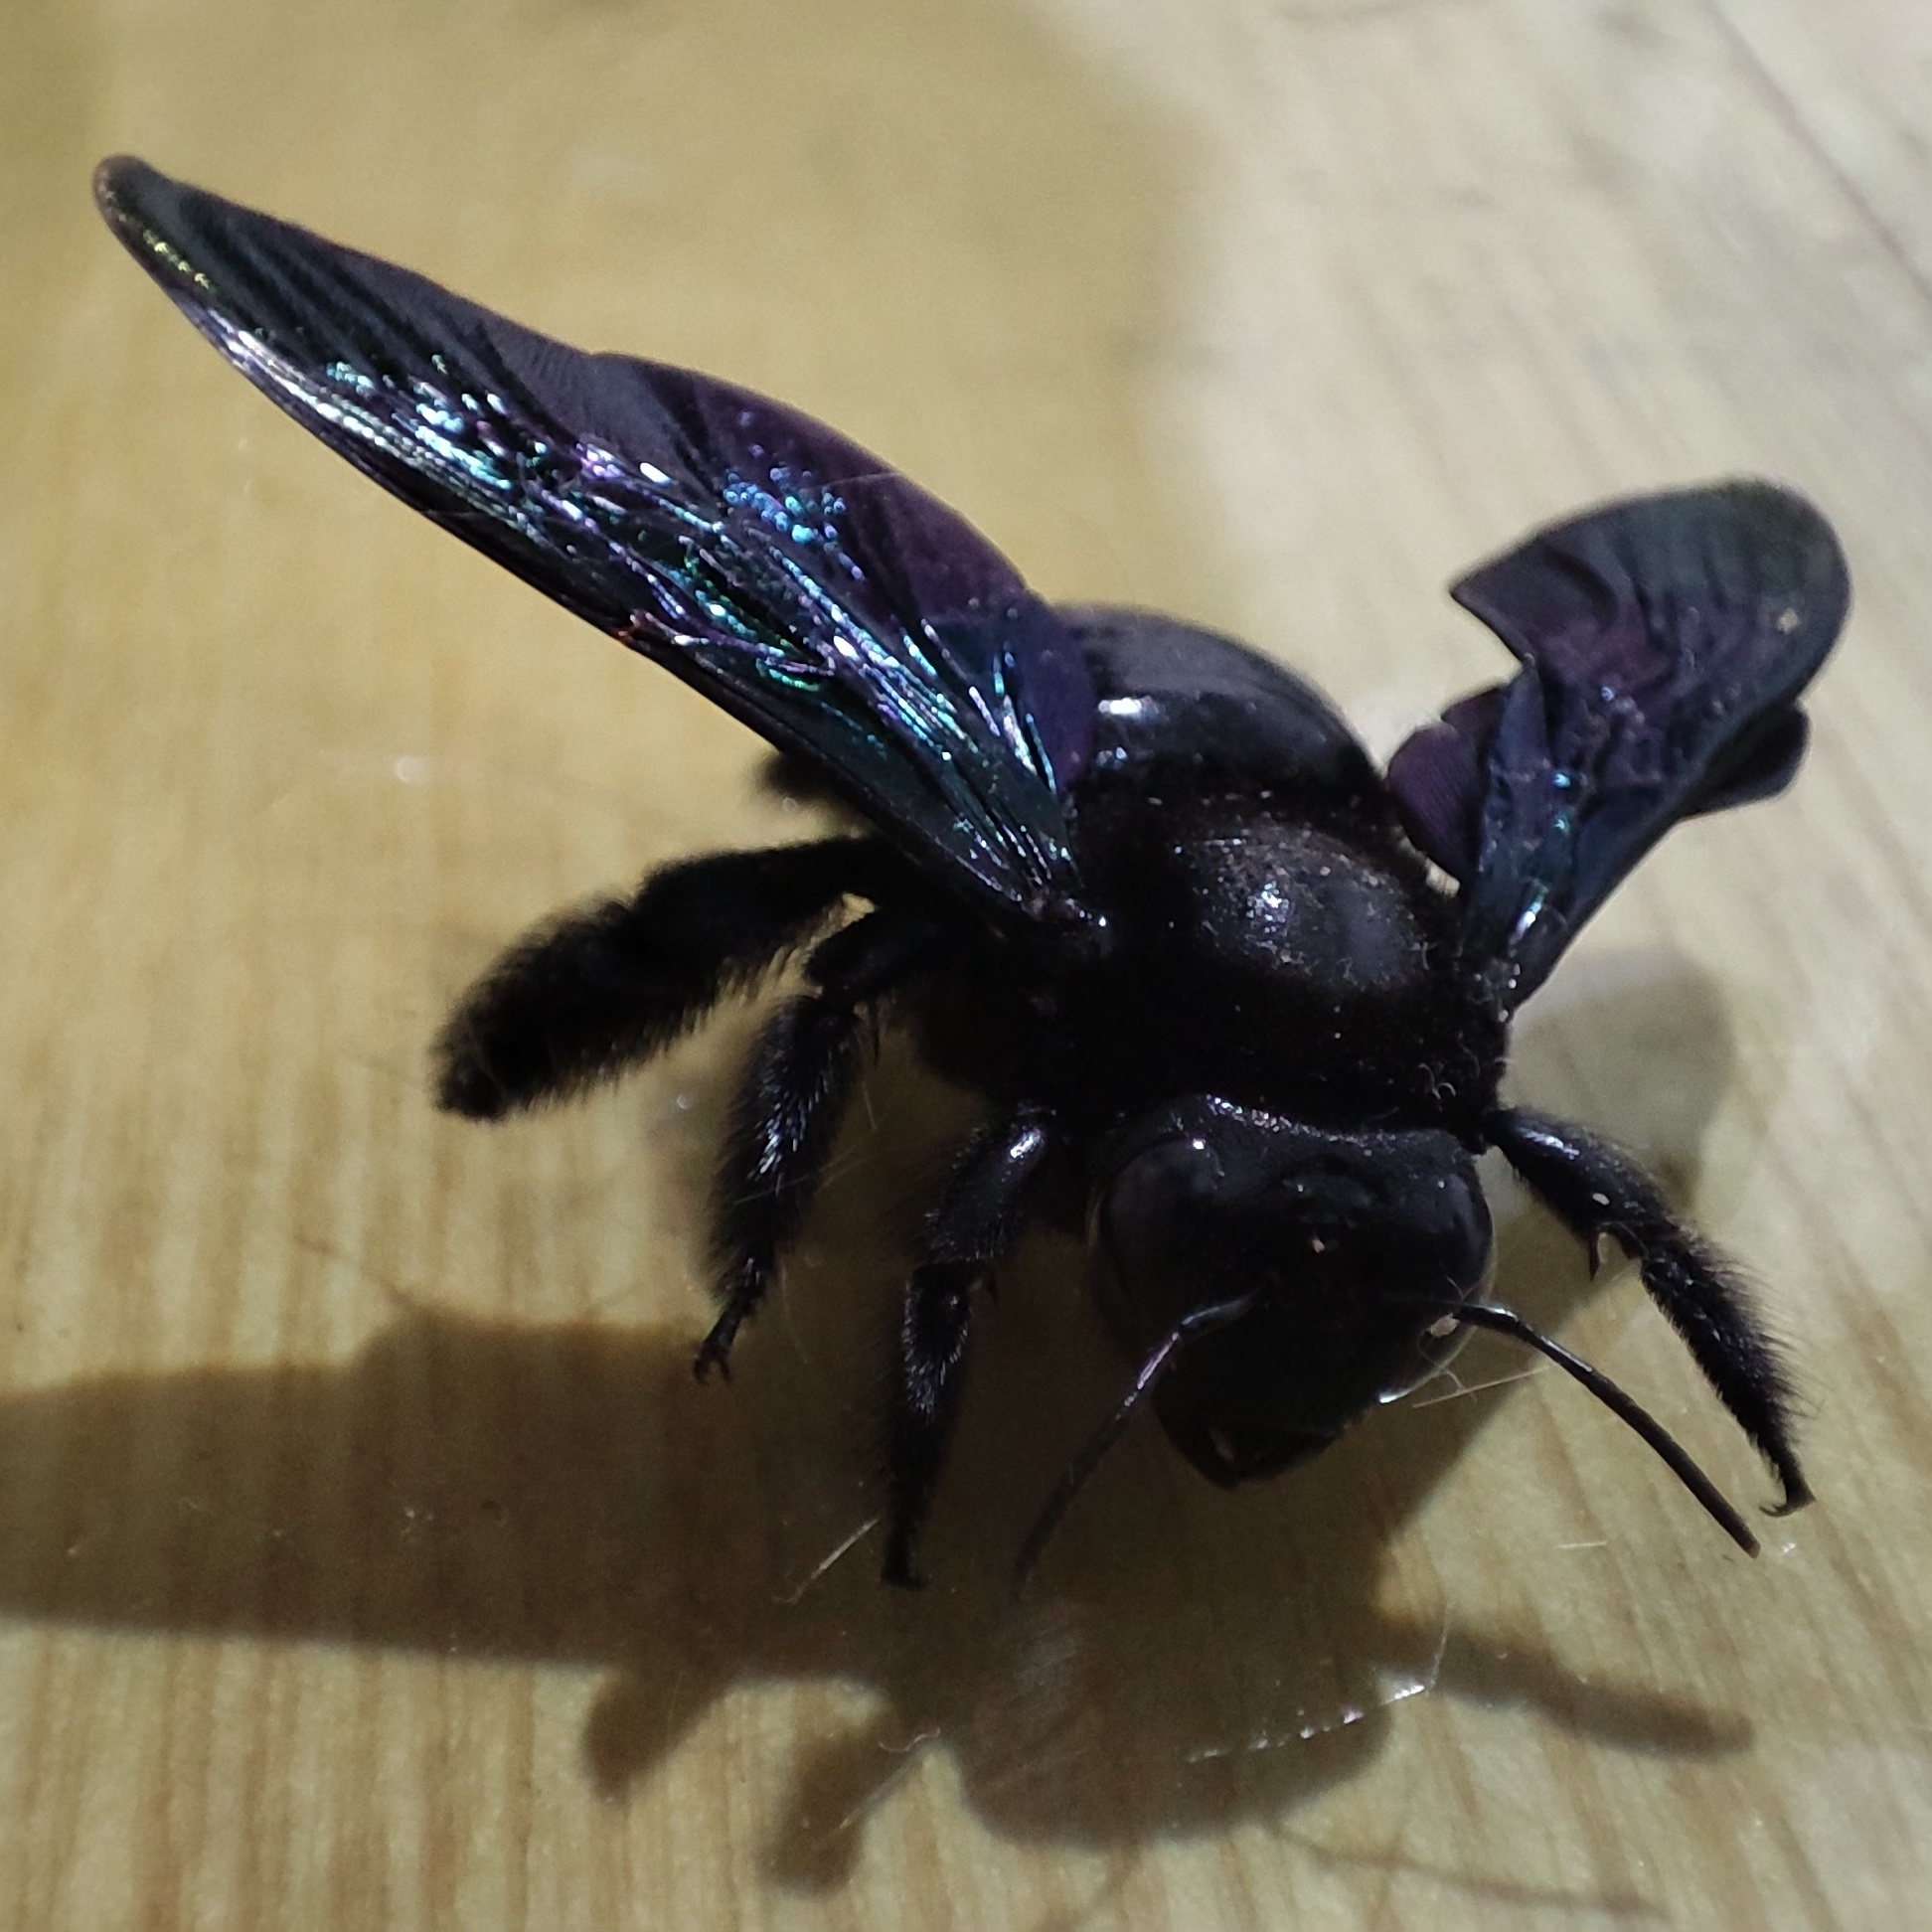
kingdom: Animalia
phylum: Arthropoda
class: Insecta
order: Hymenoptera
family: Apidae
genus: Xylocopa
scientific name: Xylocopa nasalis
